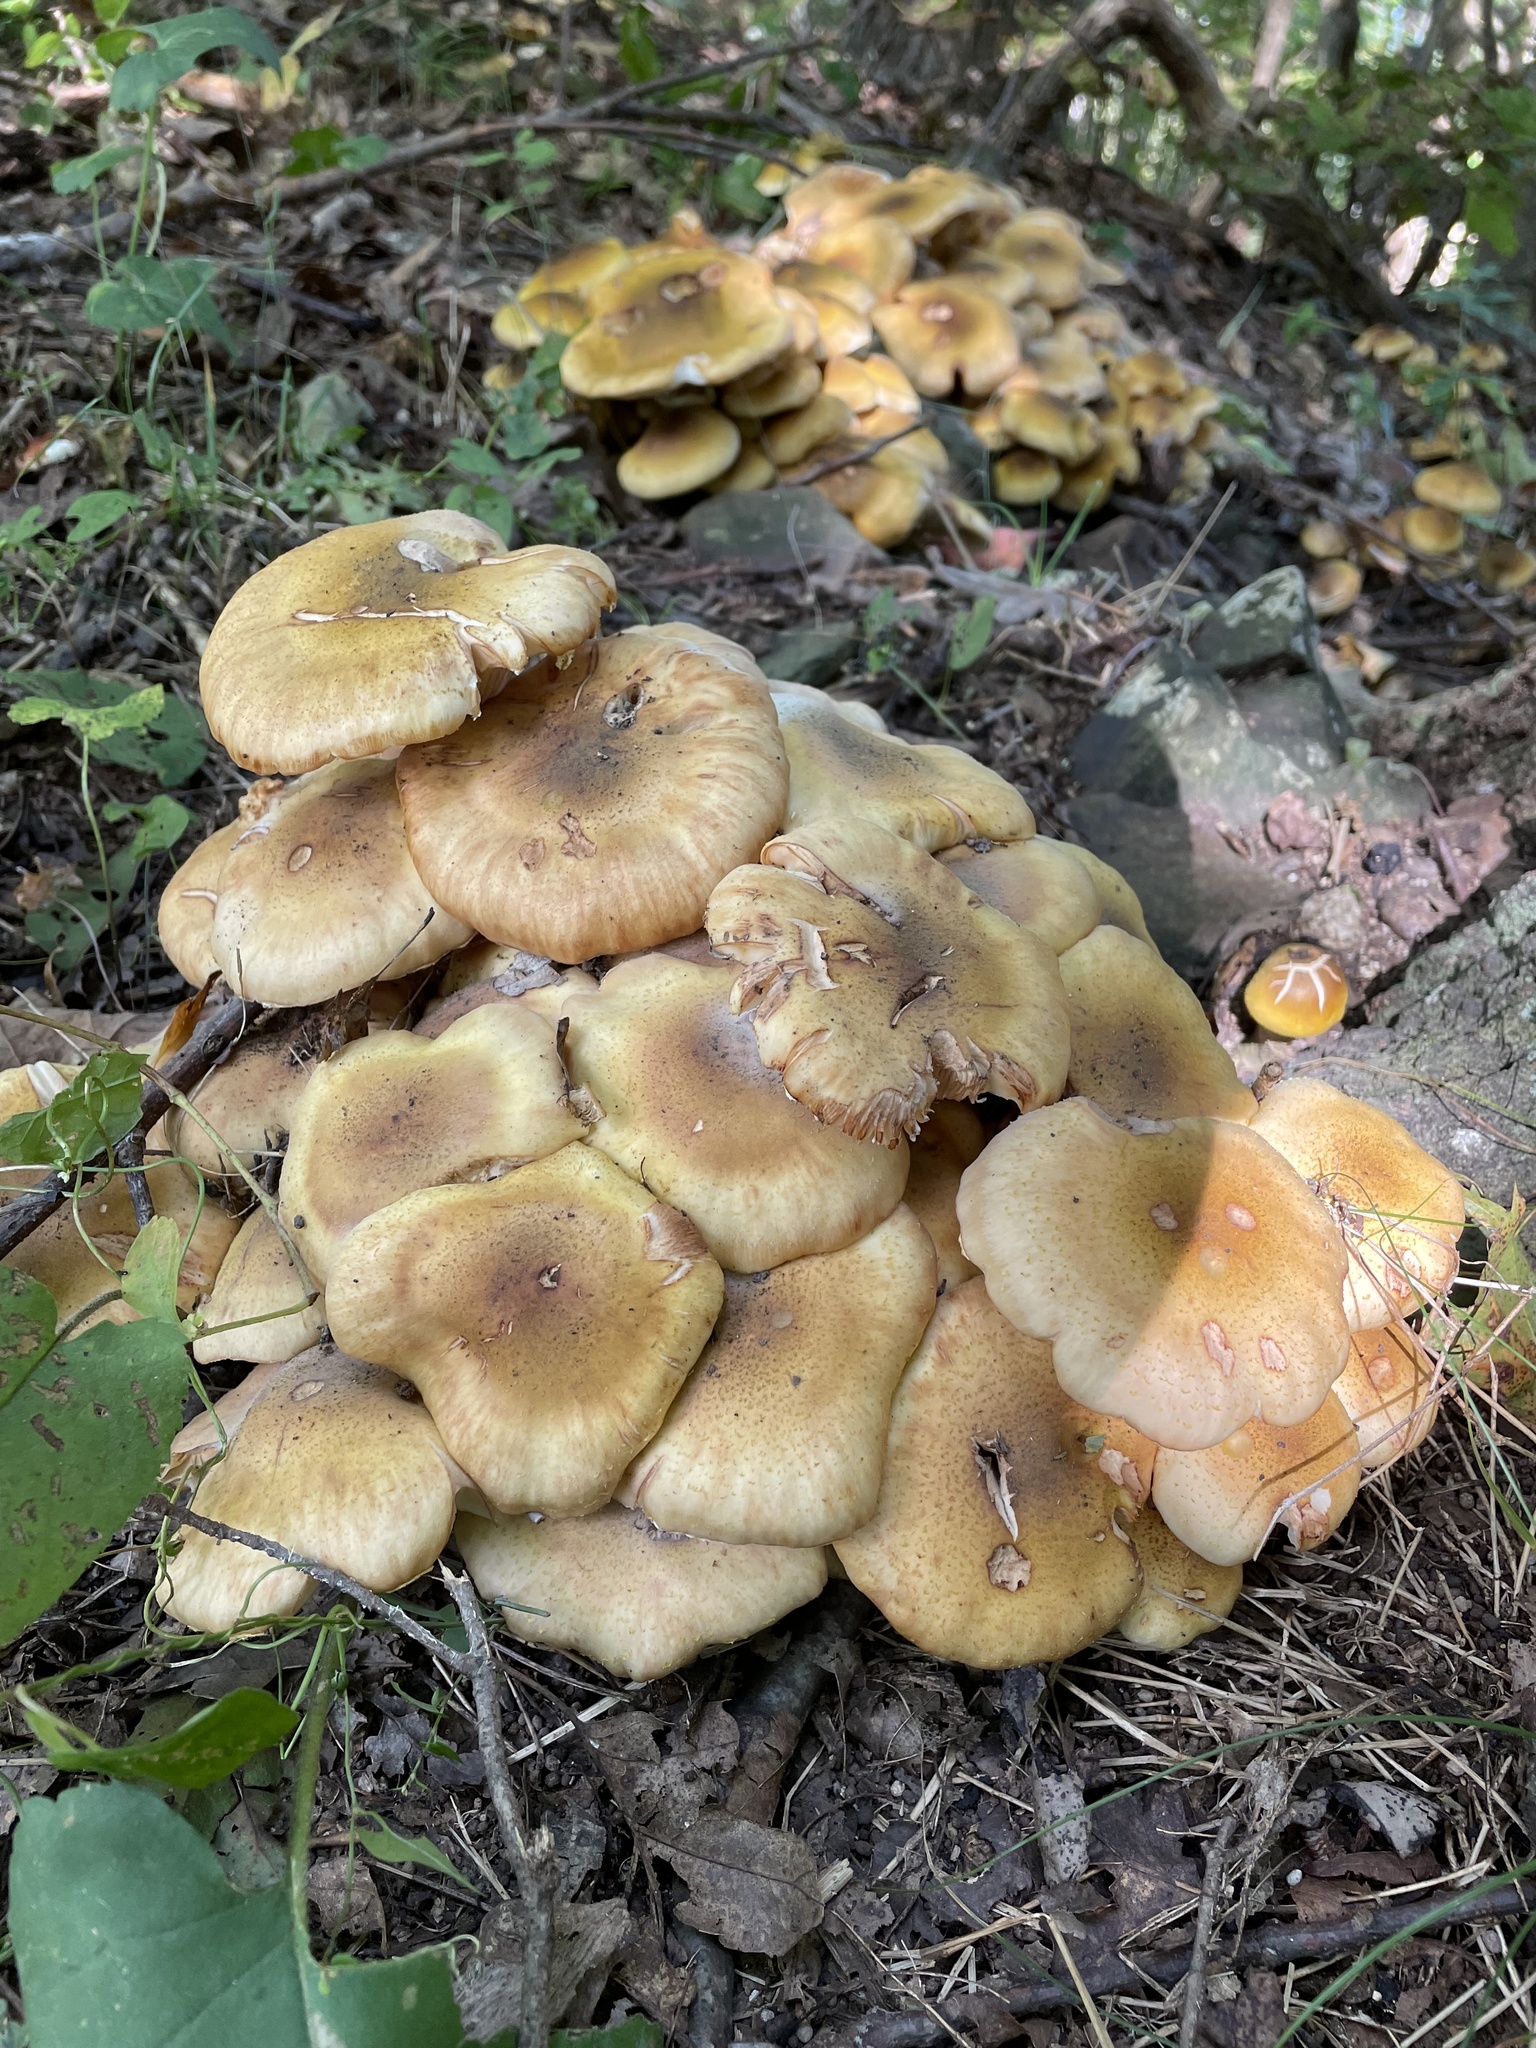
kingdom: Fungi
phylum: Basidiomycota
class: Agaricomycetes
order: Agaricales
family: Physalacriaceae
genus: Armillaria
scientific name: Armillaria mellea
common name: Honey fungus
